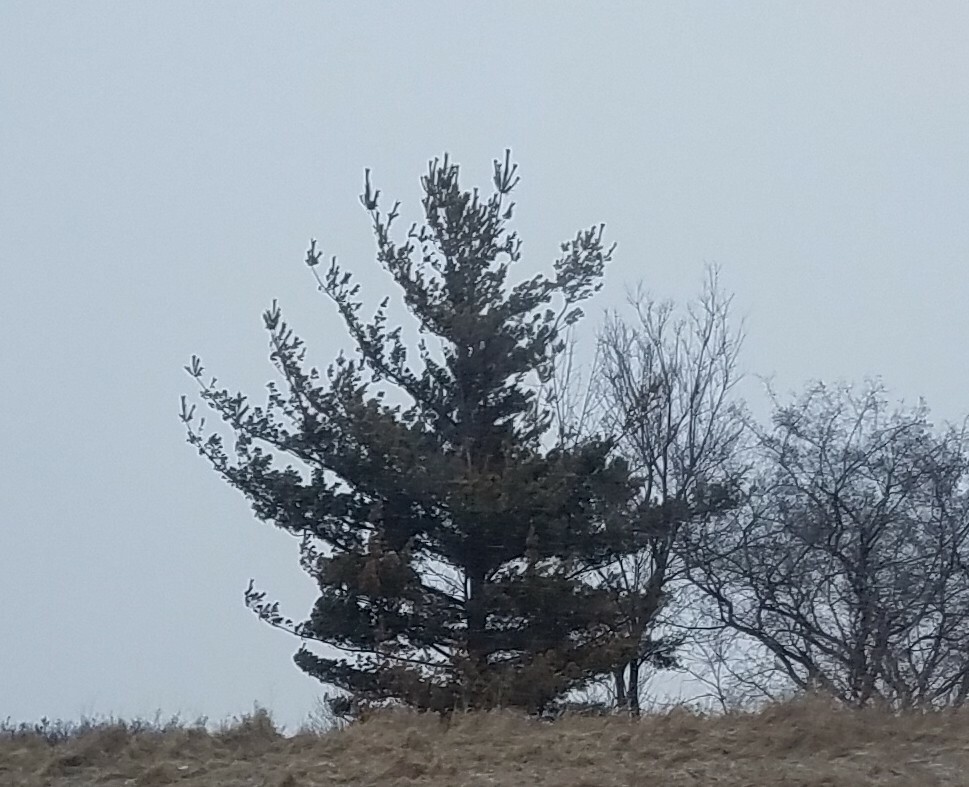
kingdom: Plantae
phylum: Tracheophyta
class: Pinopsida
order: Pinales
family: Pinaceae
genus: Pinus
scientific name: Pinus strobus
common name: Weymouth pine
